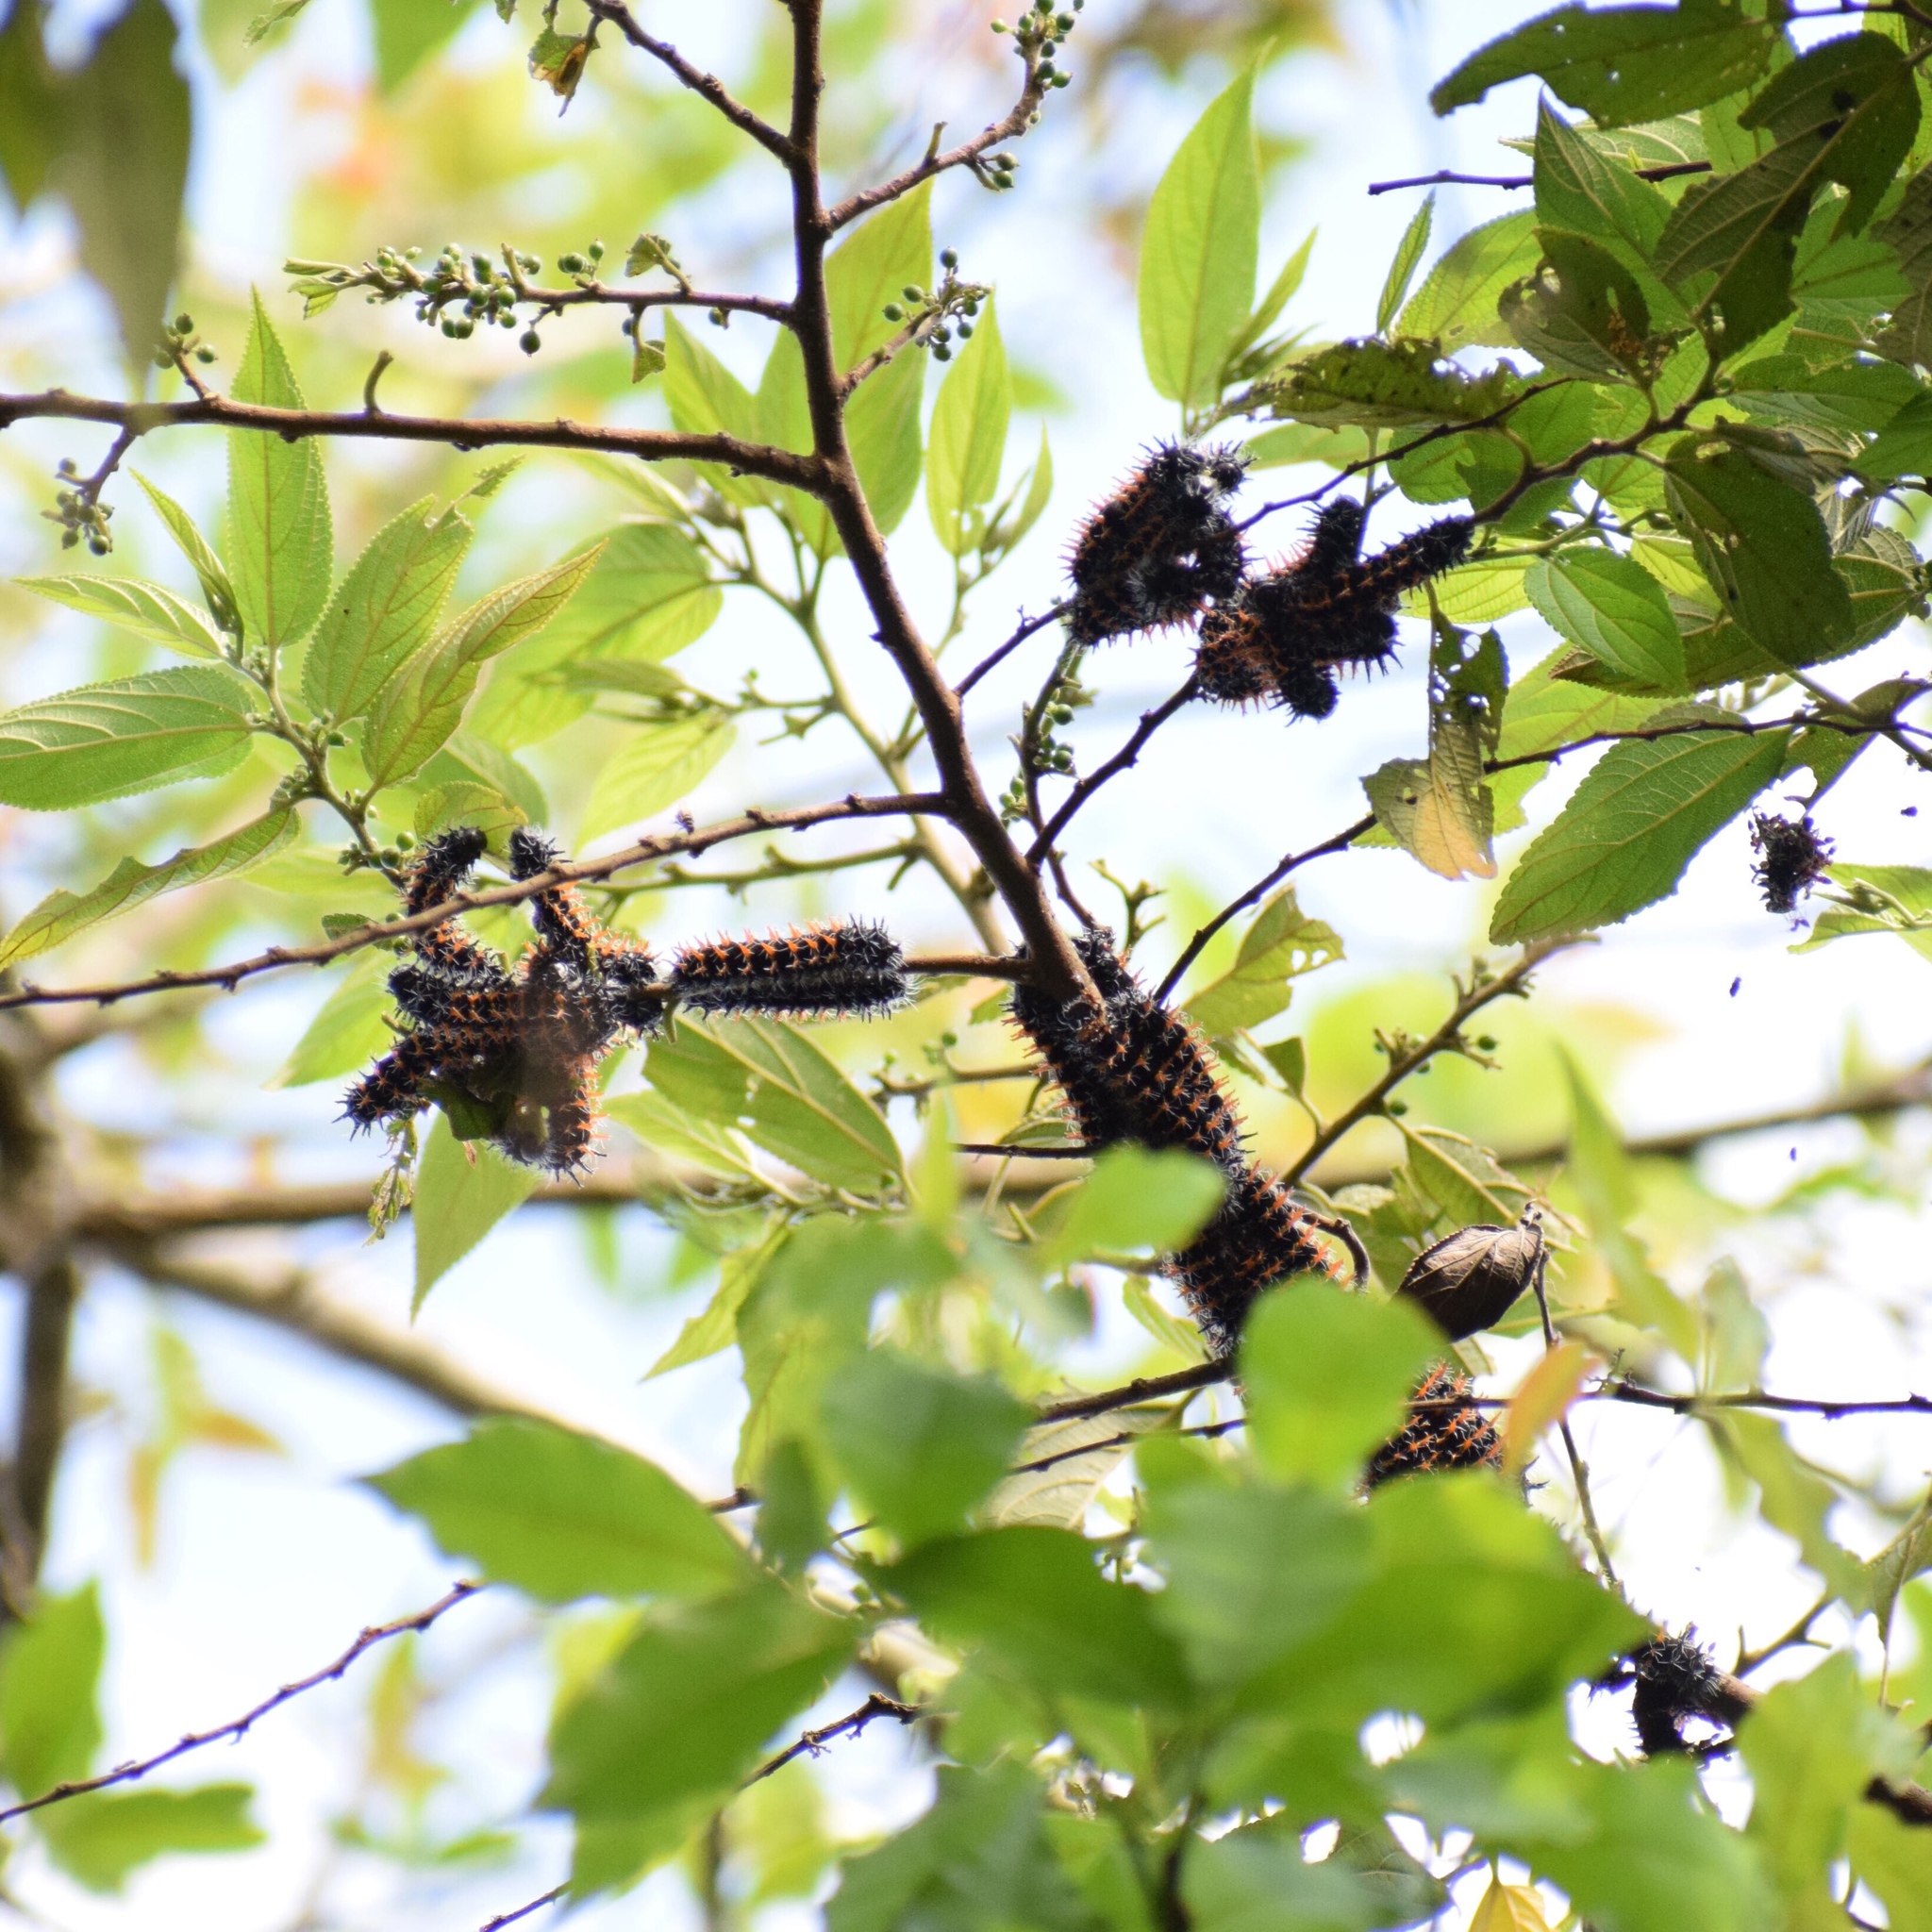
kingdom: Animalia
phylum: Arthropoda
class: Insecta
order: Lepidoptera
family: Saturniidae
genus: Nudaurelia
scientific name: Nudaurelia wahlbergi
